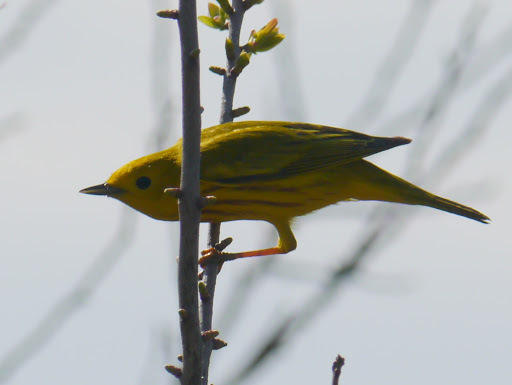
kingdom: Animalia
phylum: Chordata
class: Aves
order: Passeriformes
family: Parulidae
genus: Setophaga
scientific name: Setophaga petechia
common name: Yellow warbler
